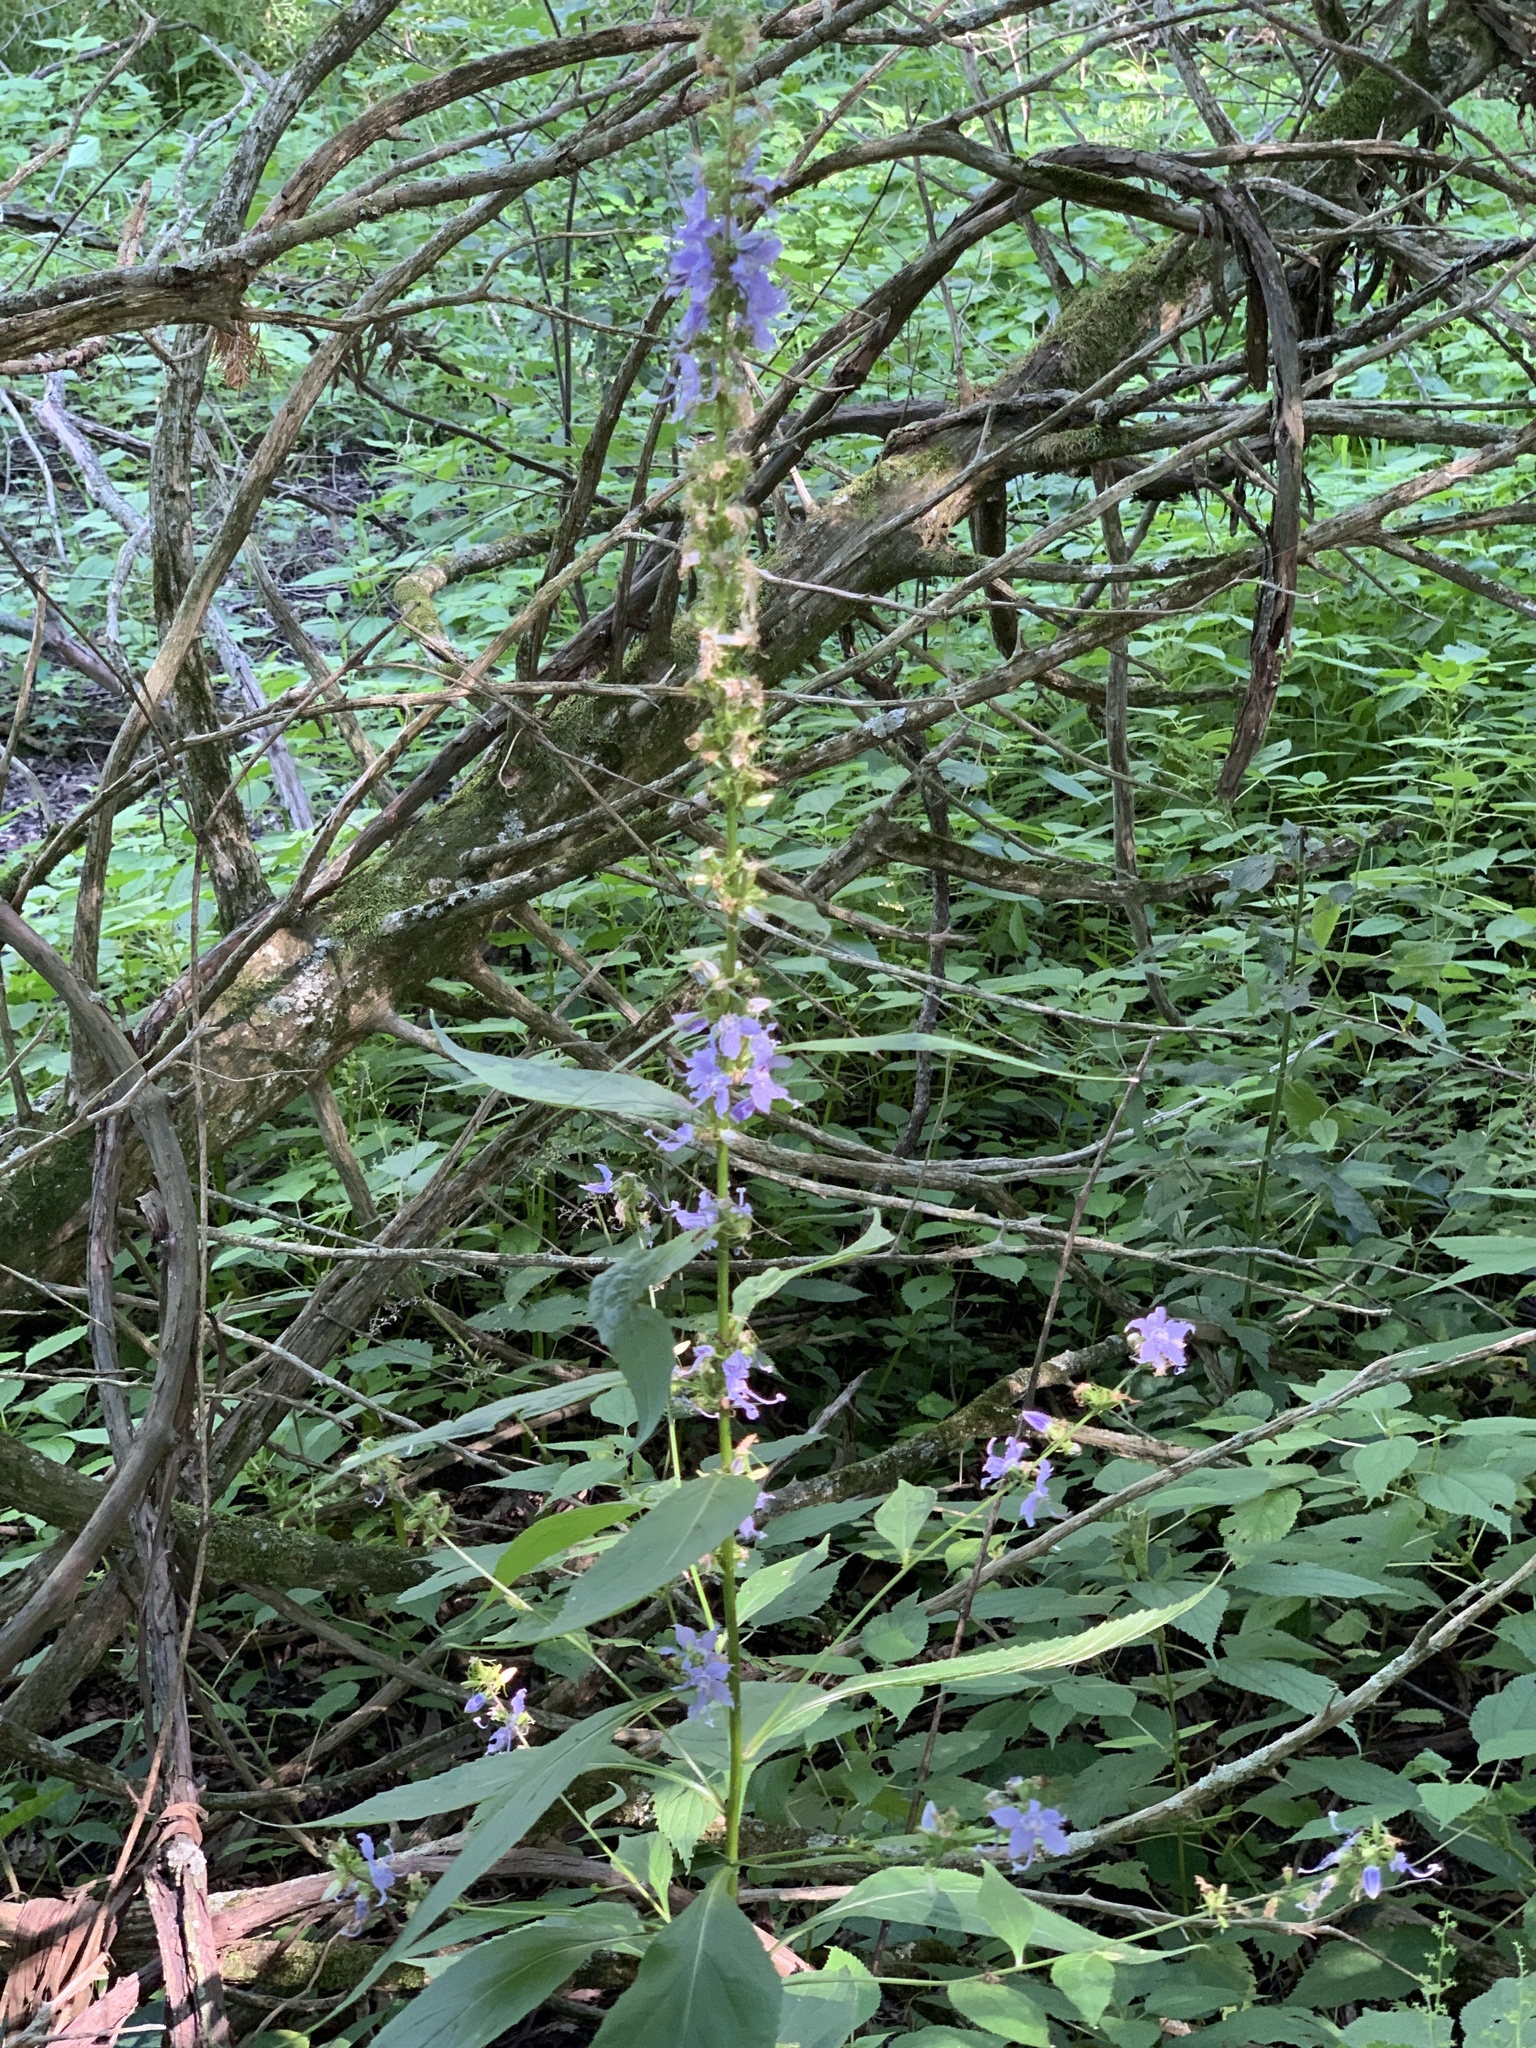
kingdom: Plantae
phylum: Tracheophyta
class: Magnoliopsida
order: Asterales
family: Campanulaceae
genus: Campanulastrum
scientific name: Campanulastrum americanum
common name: American bellflower
